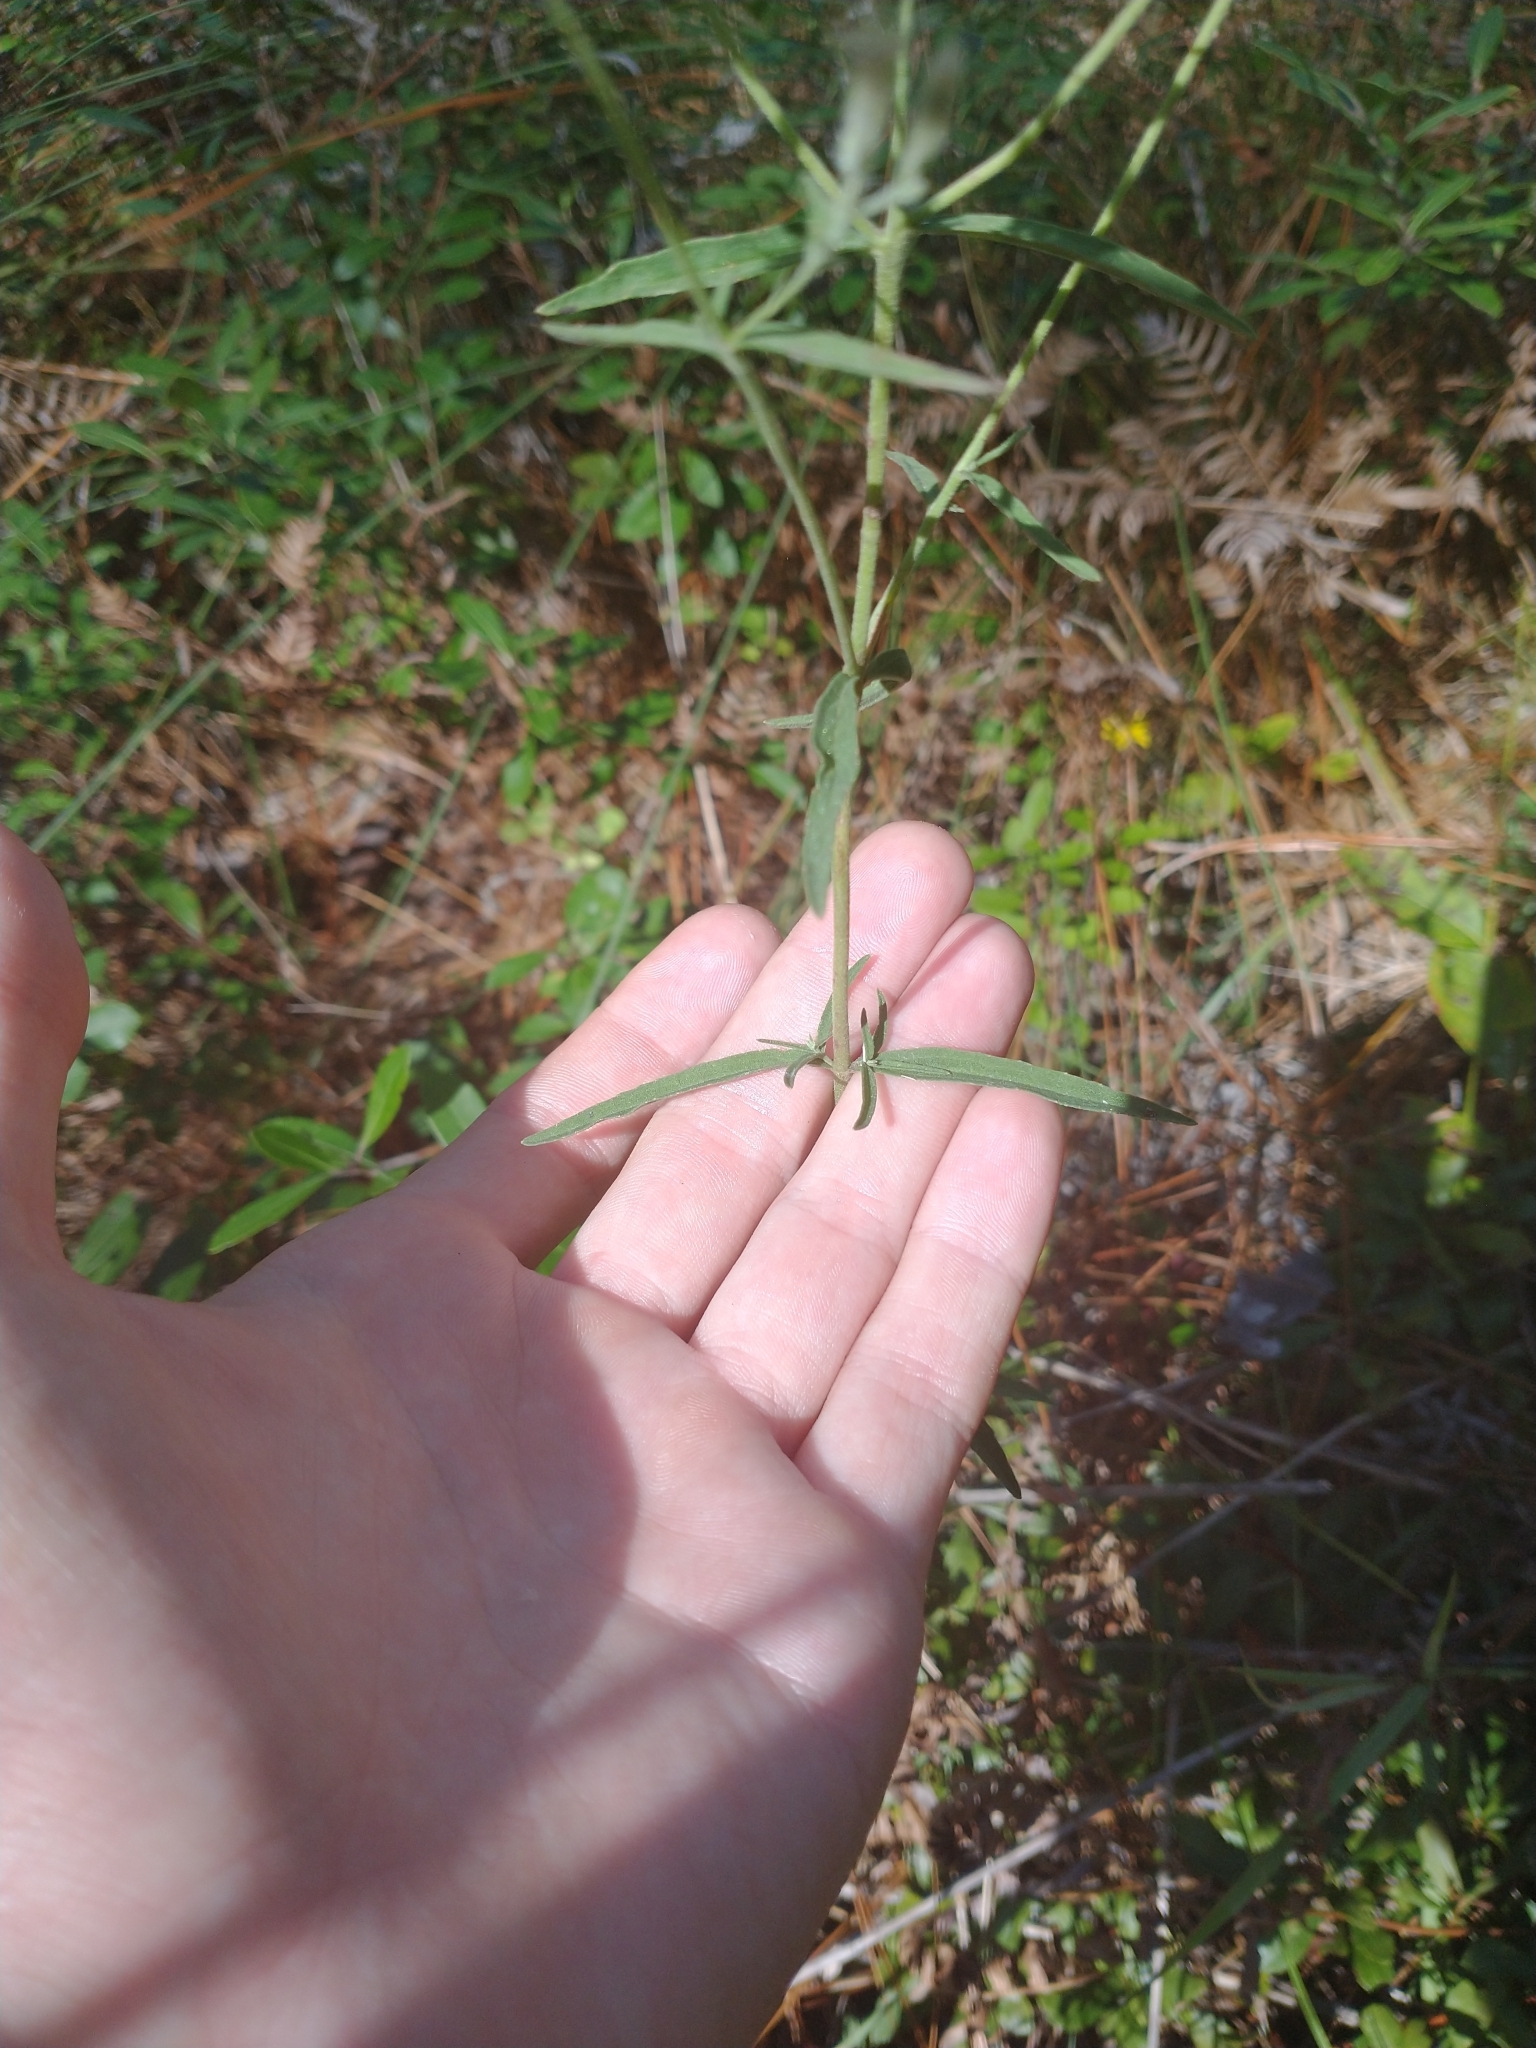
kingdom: Plantae
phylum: Tracheophyta
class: Magnoliopsida
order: Asterales
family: Asteraceae
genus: Eupatorium
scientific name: Eupatorium leucolepis
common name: Justiceweed
